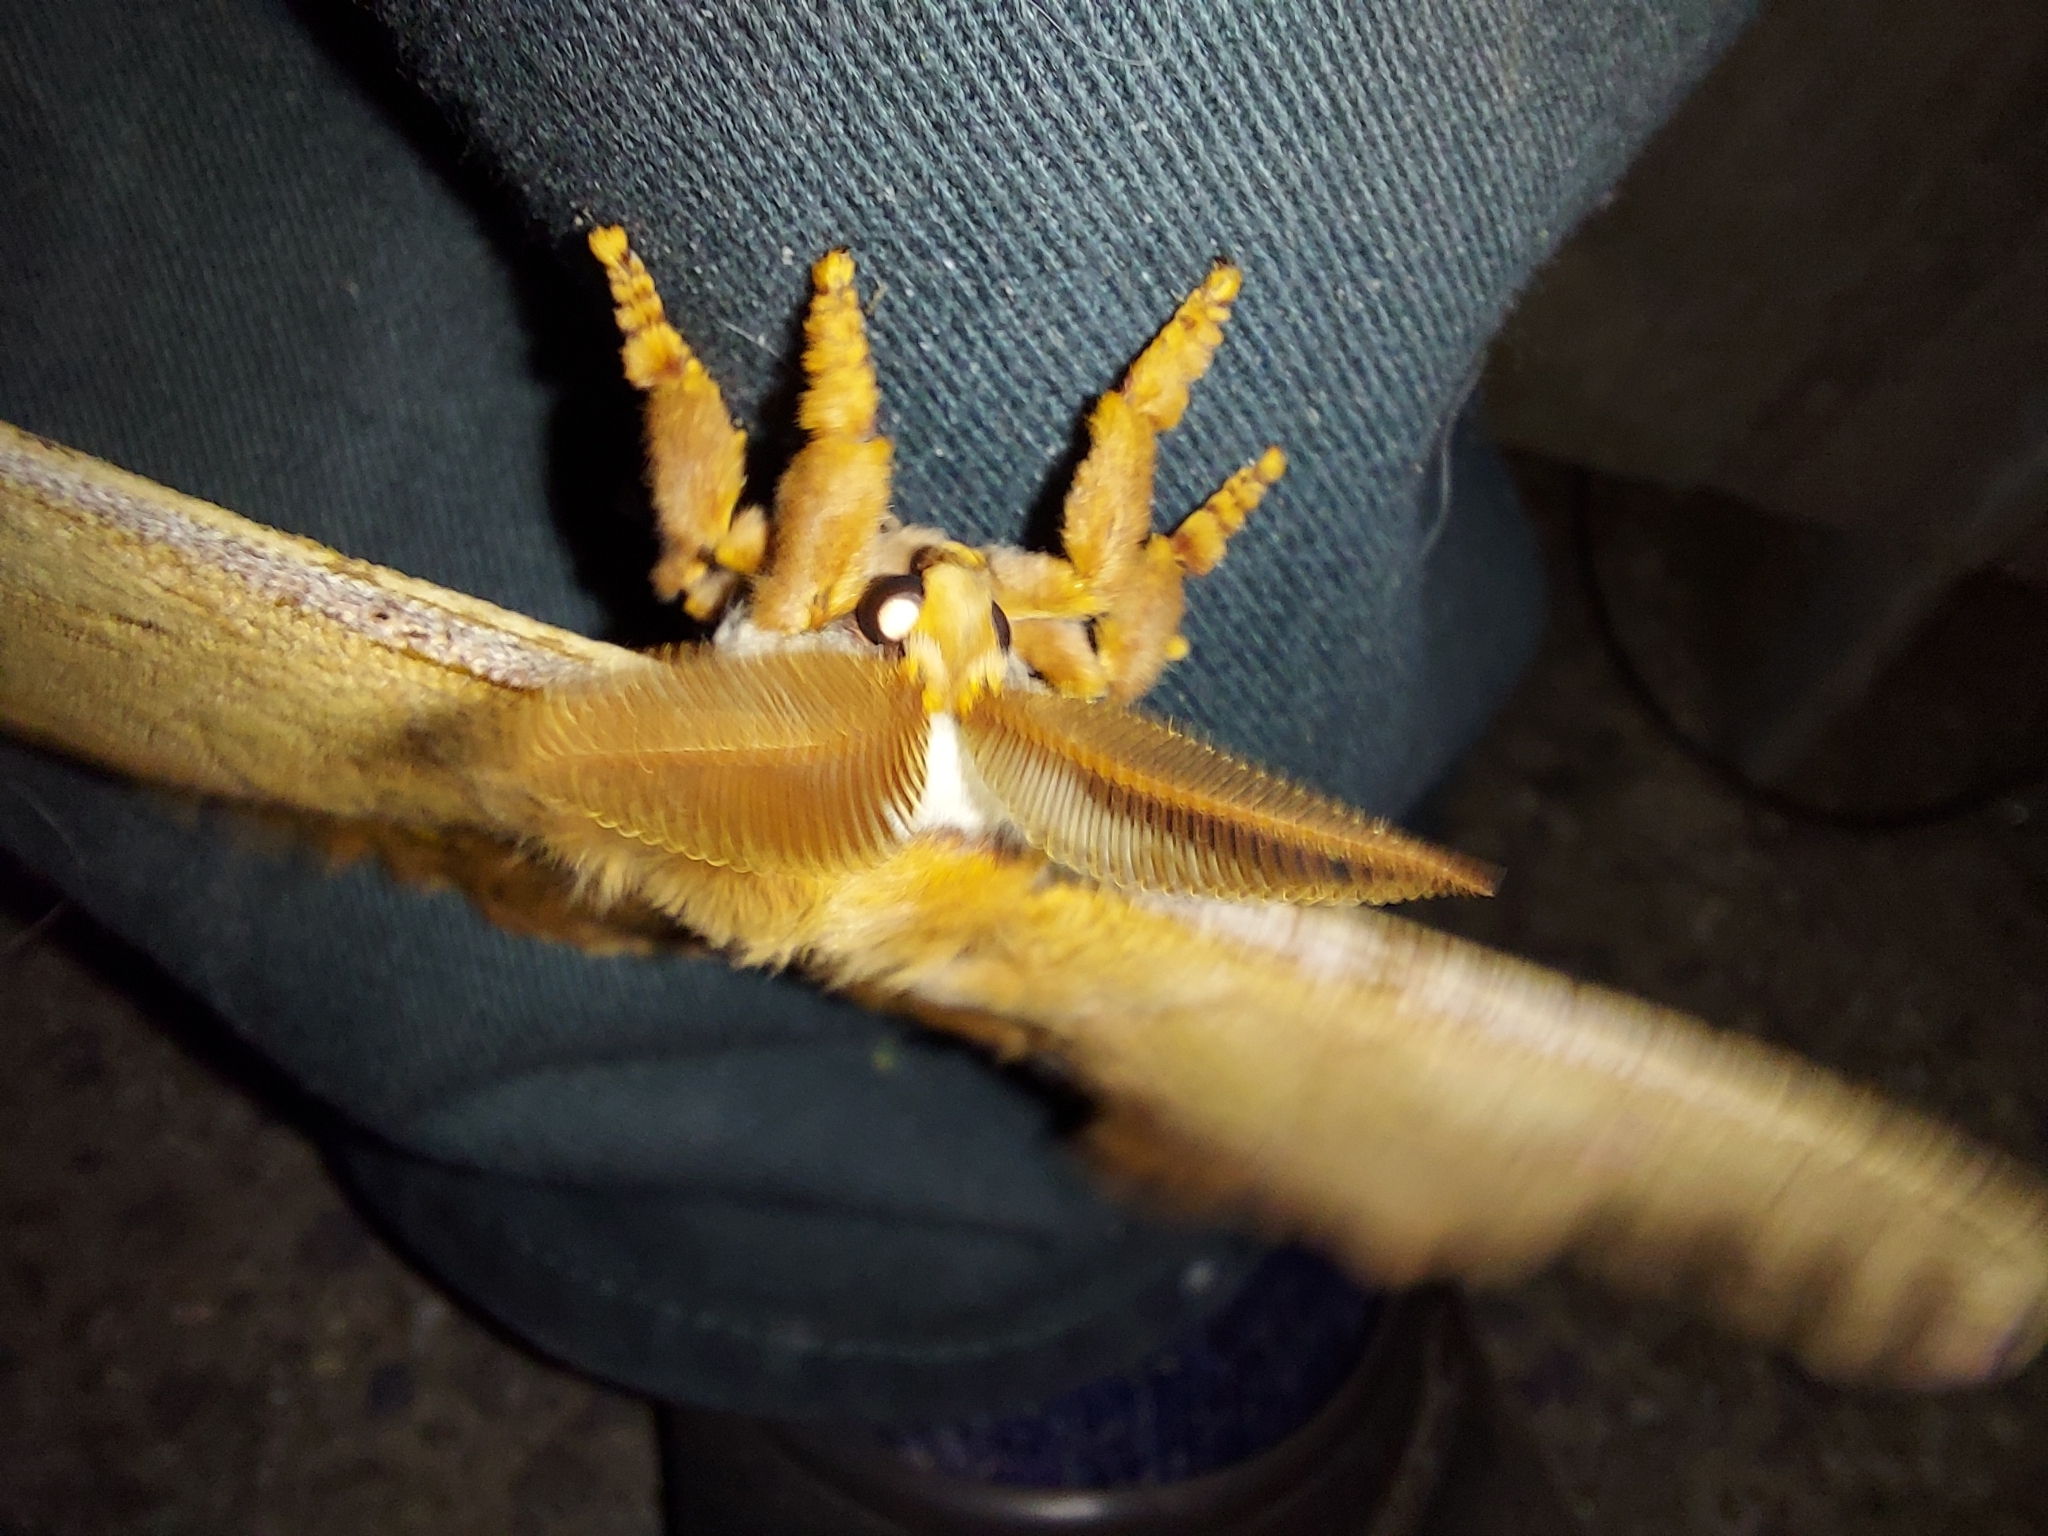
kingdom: Animalia
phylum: Arthropoda
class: Insecta
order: Lepidoptera
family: Saturniidae
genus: Opodiphthera
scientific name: Opodiphthera
